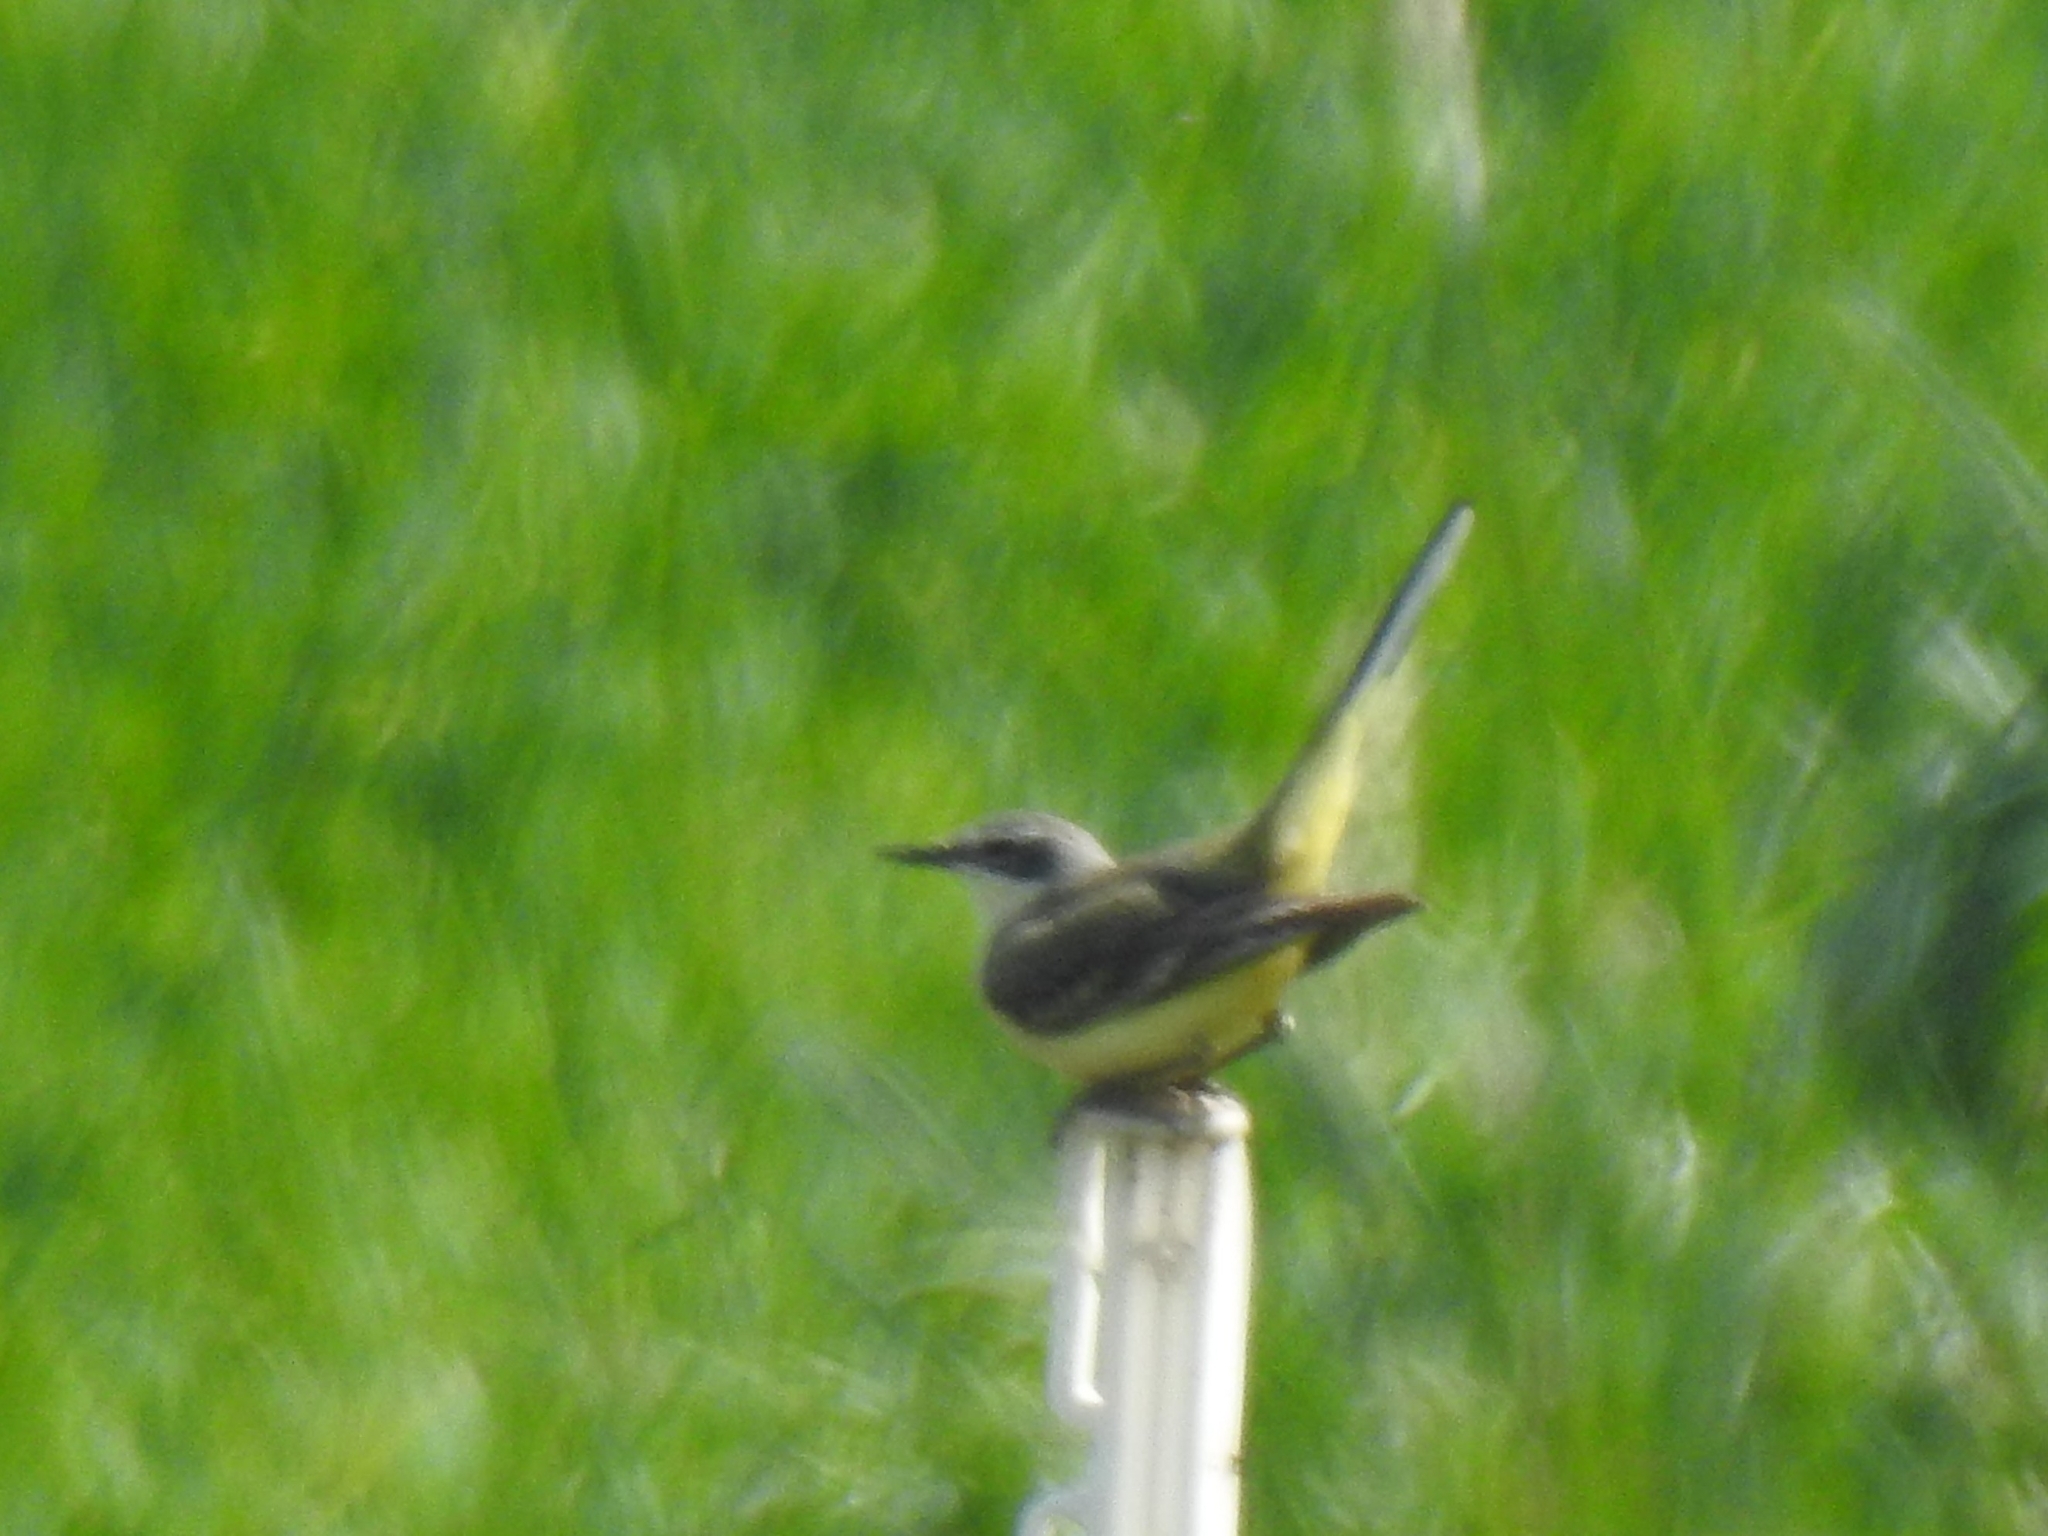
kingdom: Animalia
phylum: Chordata
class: Aves
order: Passeriformes
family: Motacillidae
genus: Motacilla
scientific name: Motacilla flava
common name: Western yellow wagtail
